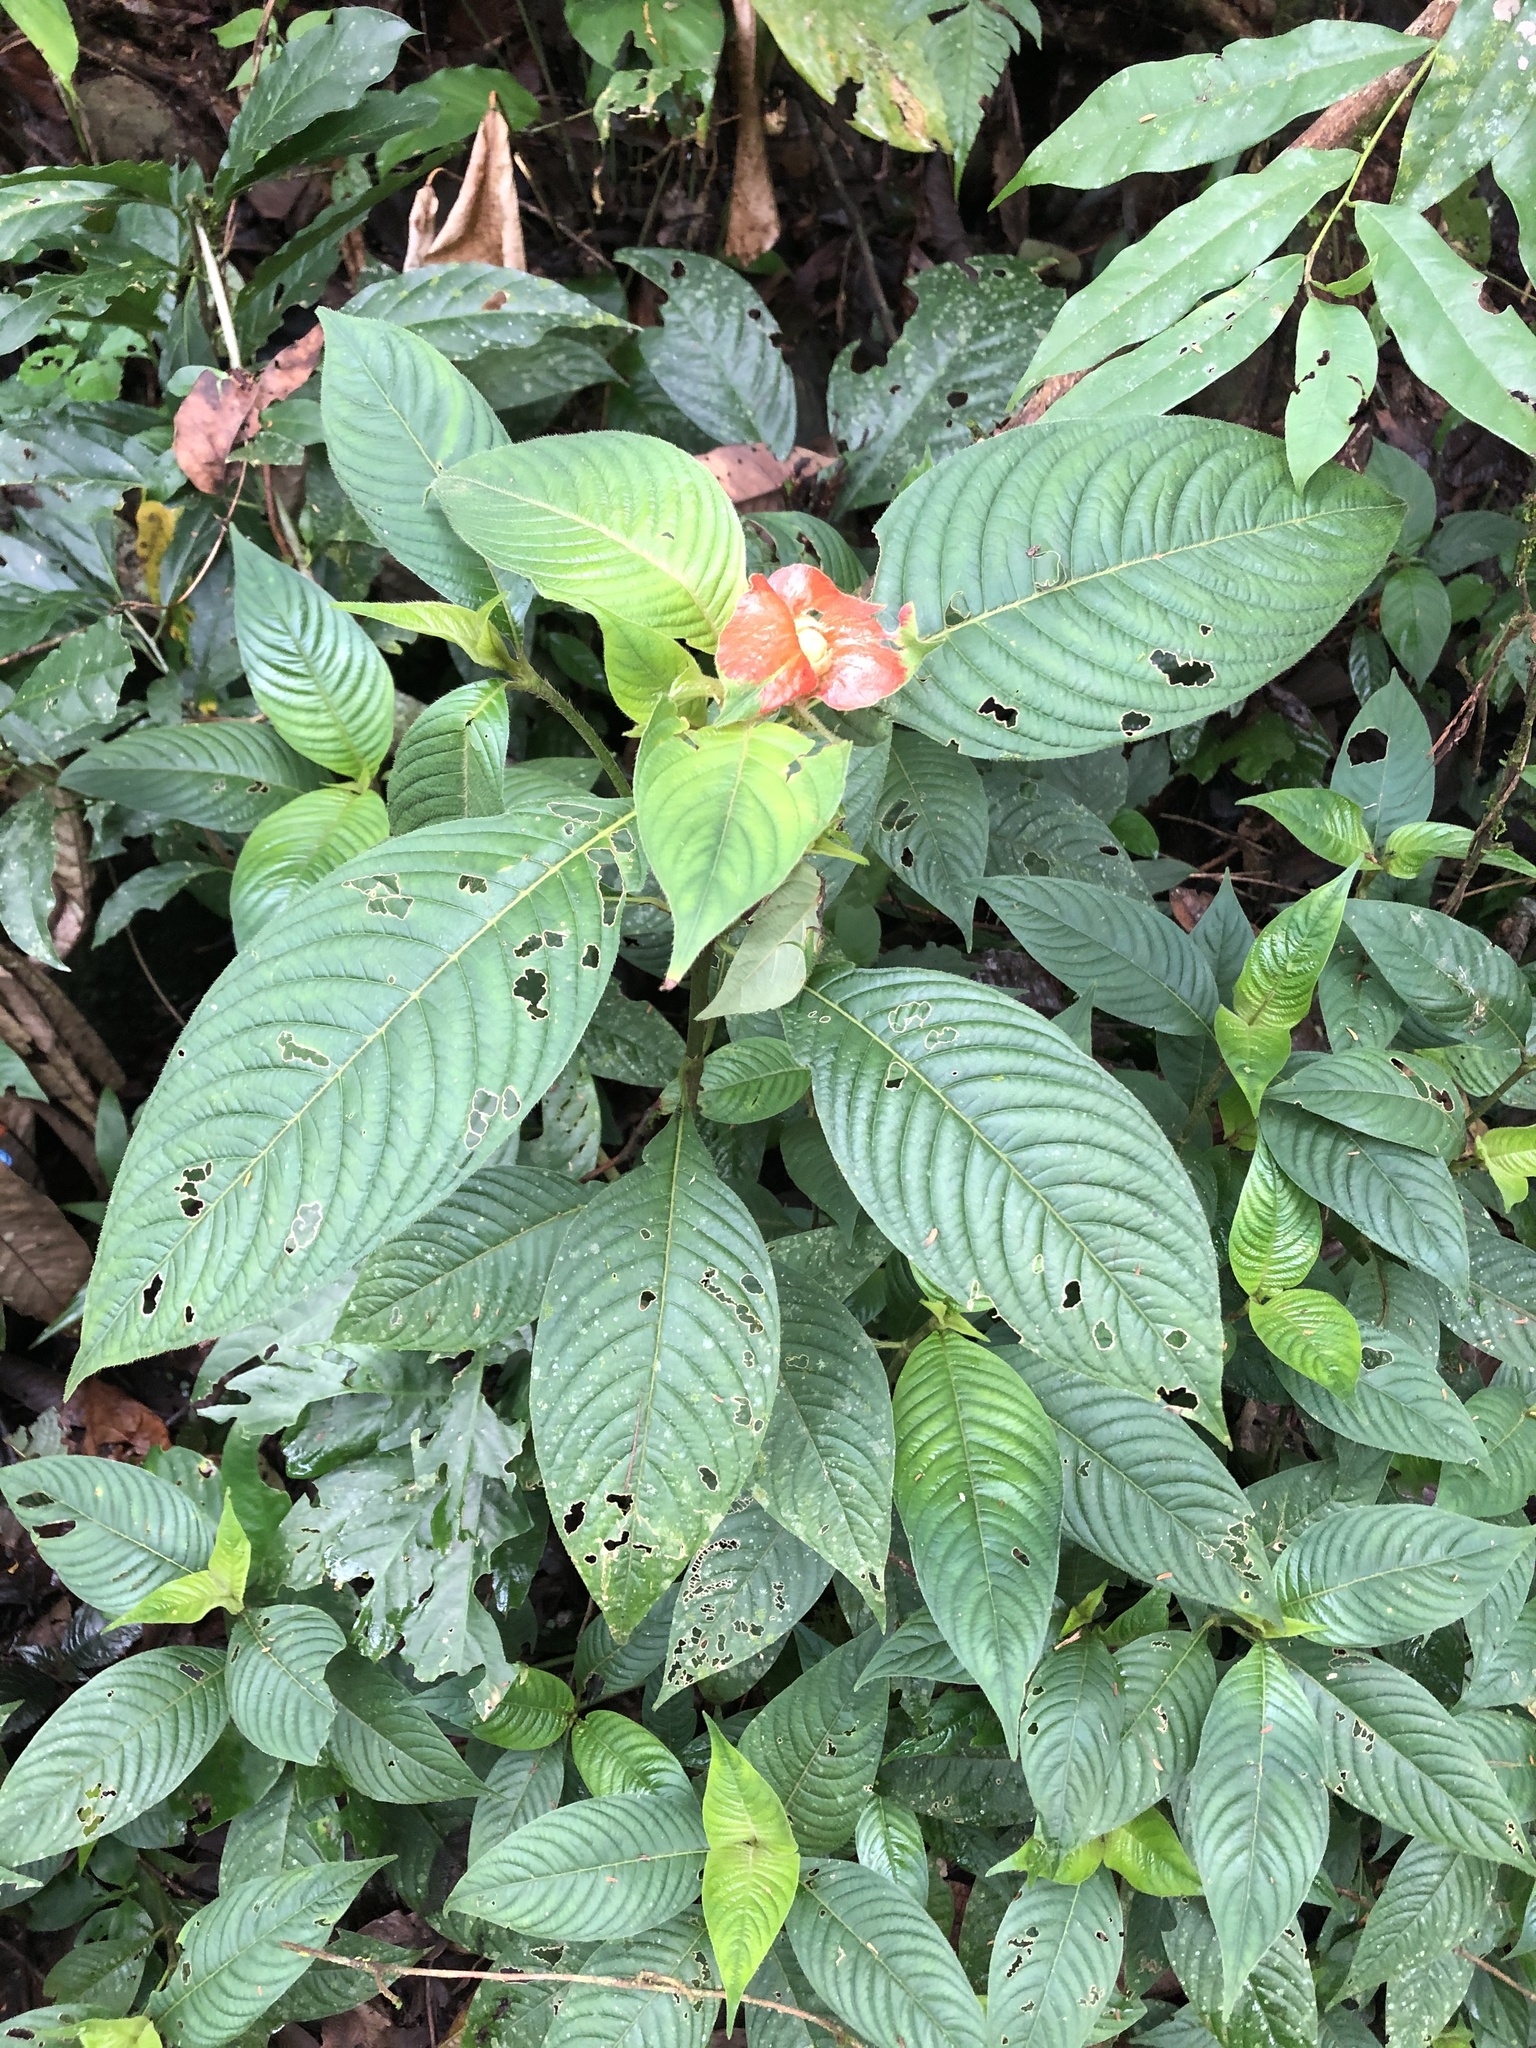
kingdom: Plantae
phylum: Tracheophyta
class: Magnoliopsida
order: Gentianales
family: Rubiaceae
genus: Palicourea
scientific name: Palicourea tomentosa
